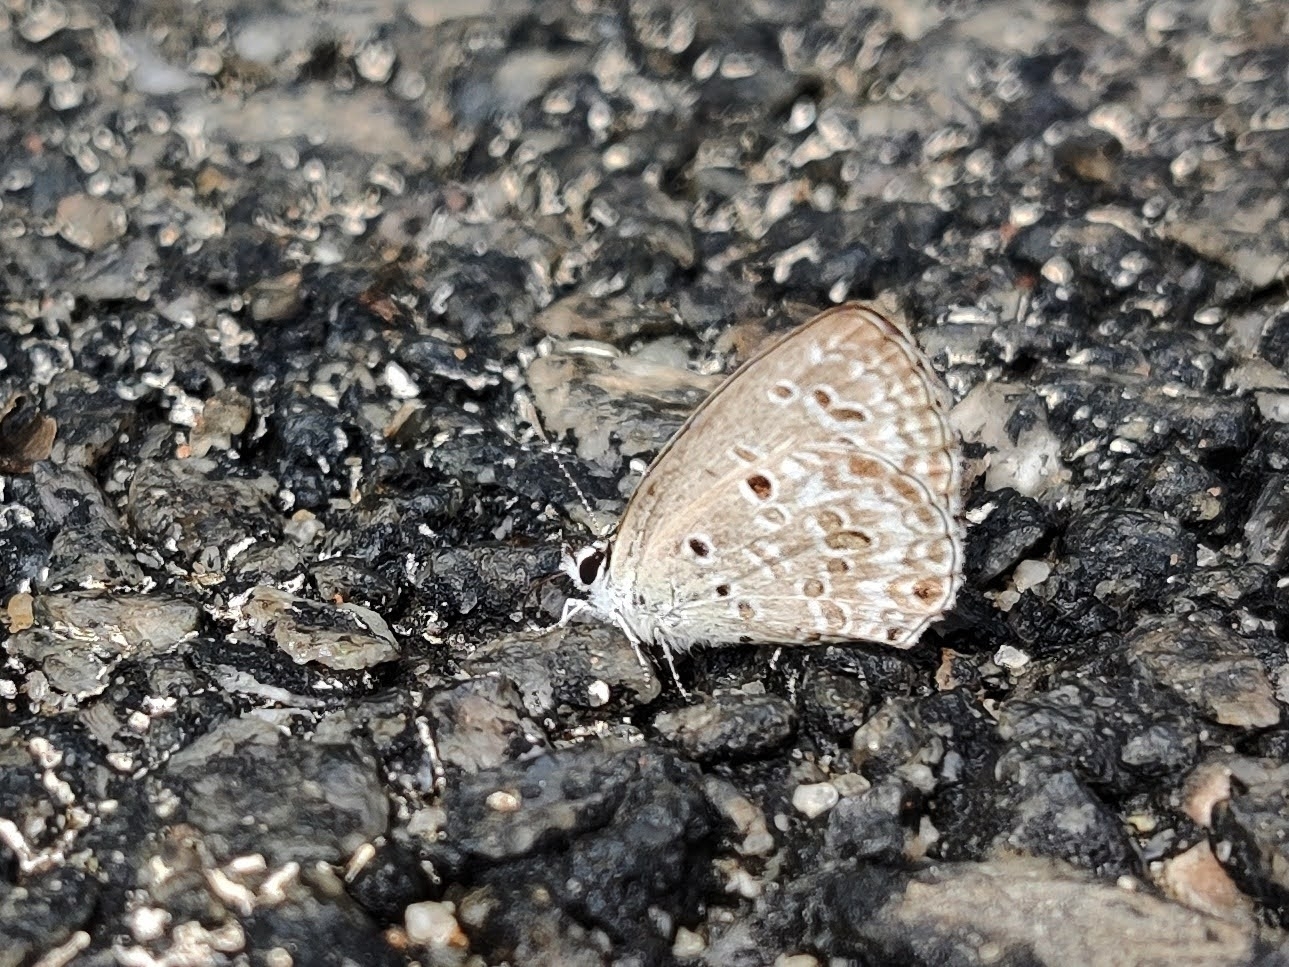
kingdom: Animalia
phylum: Arthropoda
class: Insecta
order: Lepidoptera
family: Lycaenidae
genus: Chilades
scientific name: Chilades laius
